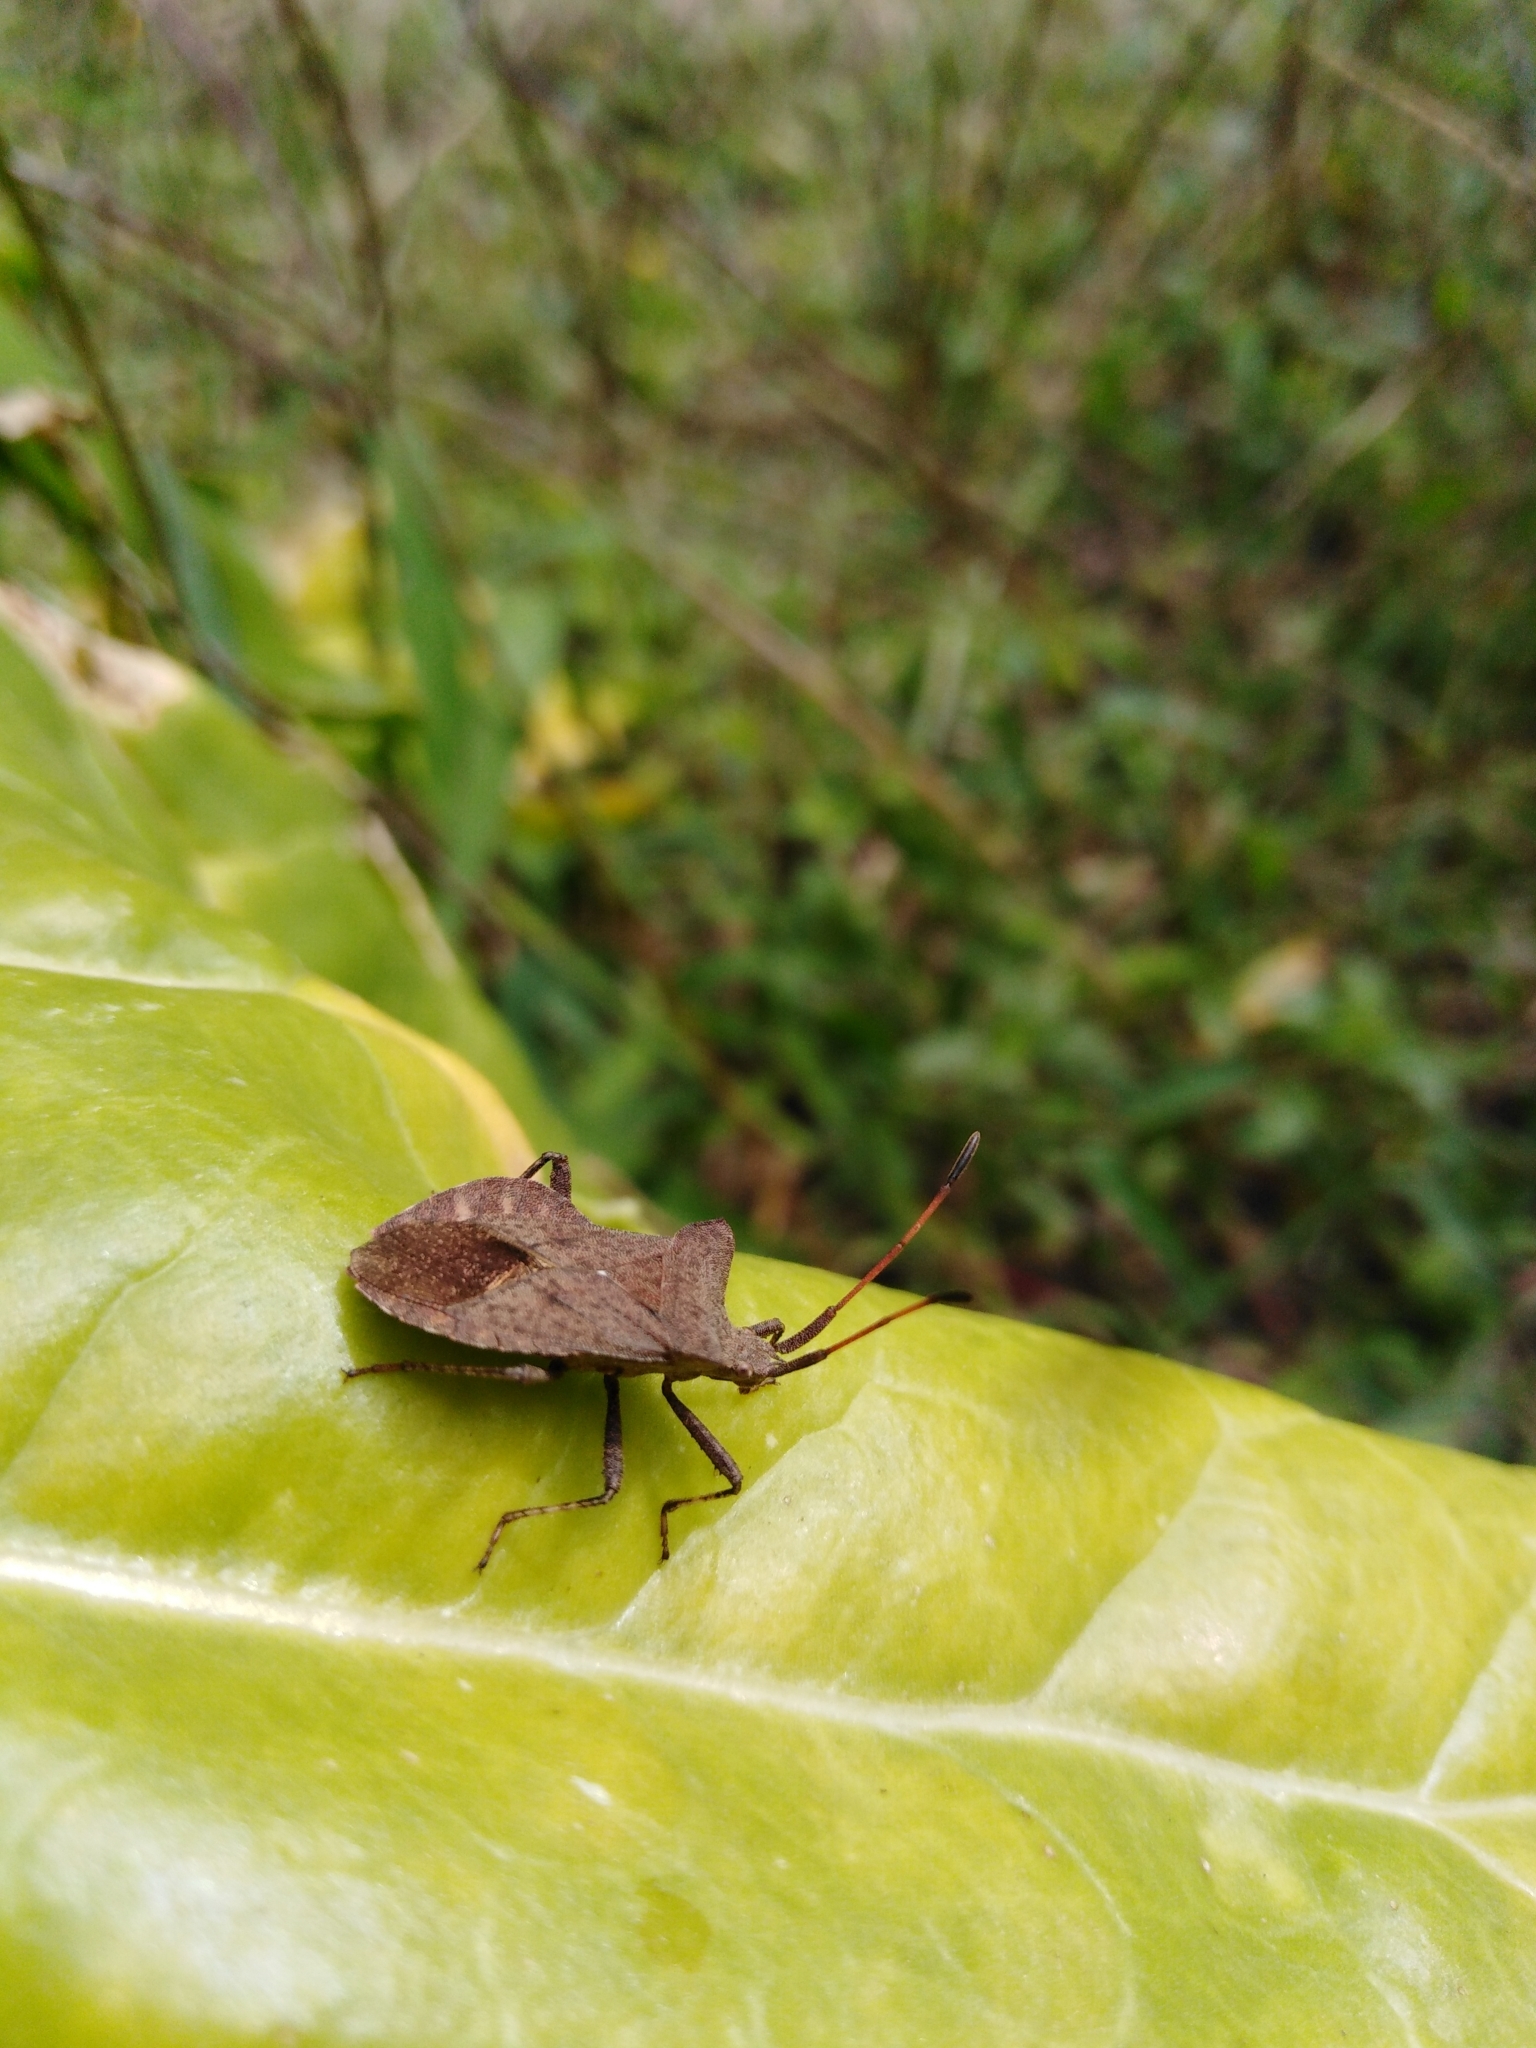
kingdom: Animalia
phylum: Arthropoda
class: Insecta
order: Hemiptera
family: Coreidae
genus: Coreus
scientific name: Coreus marginatus
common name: Dock bug
